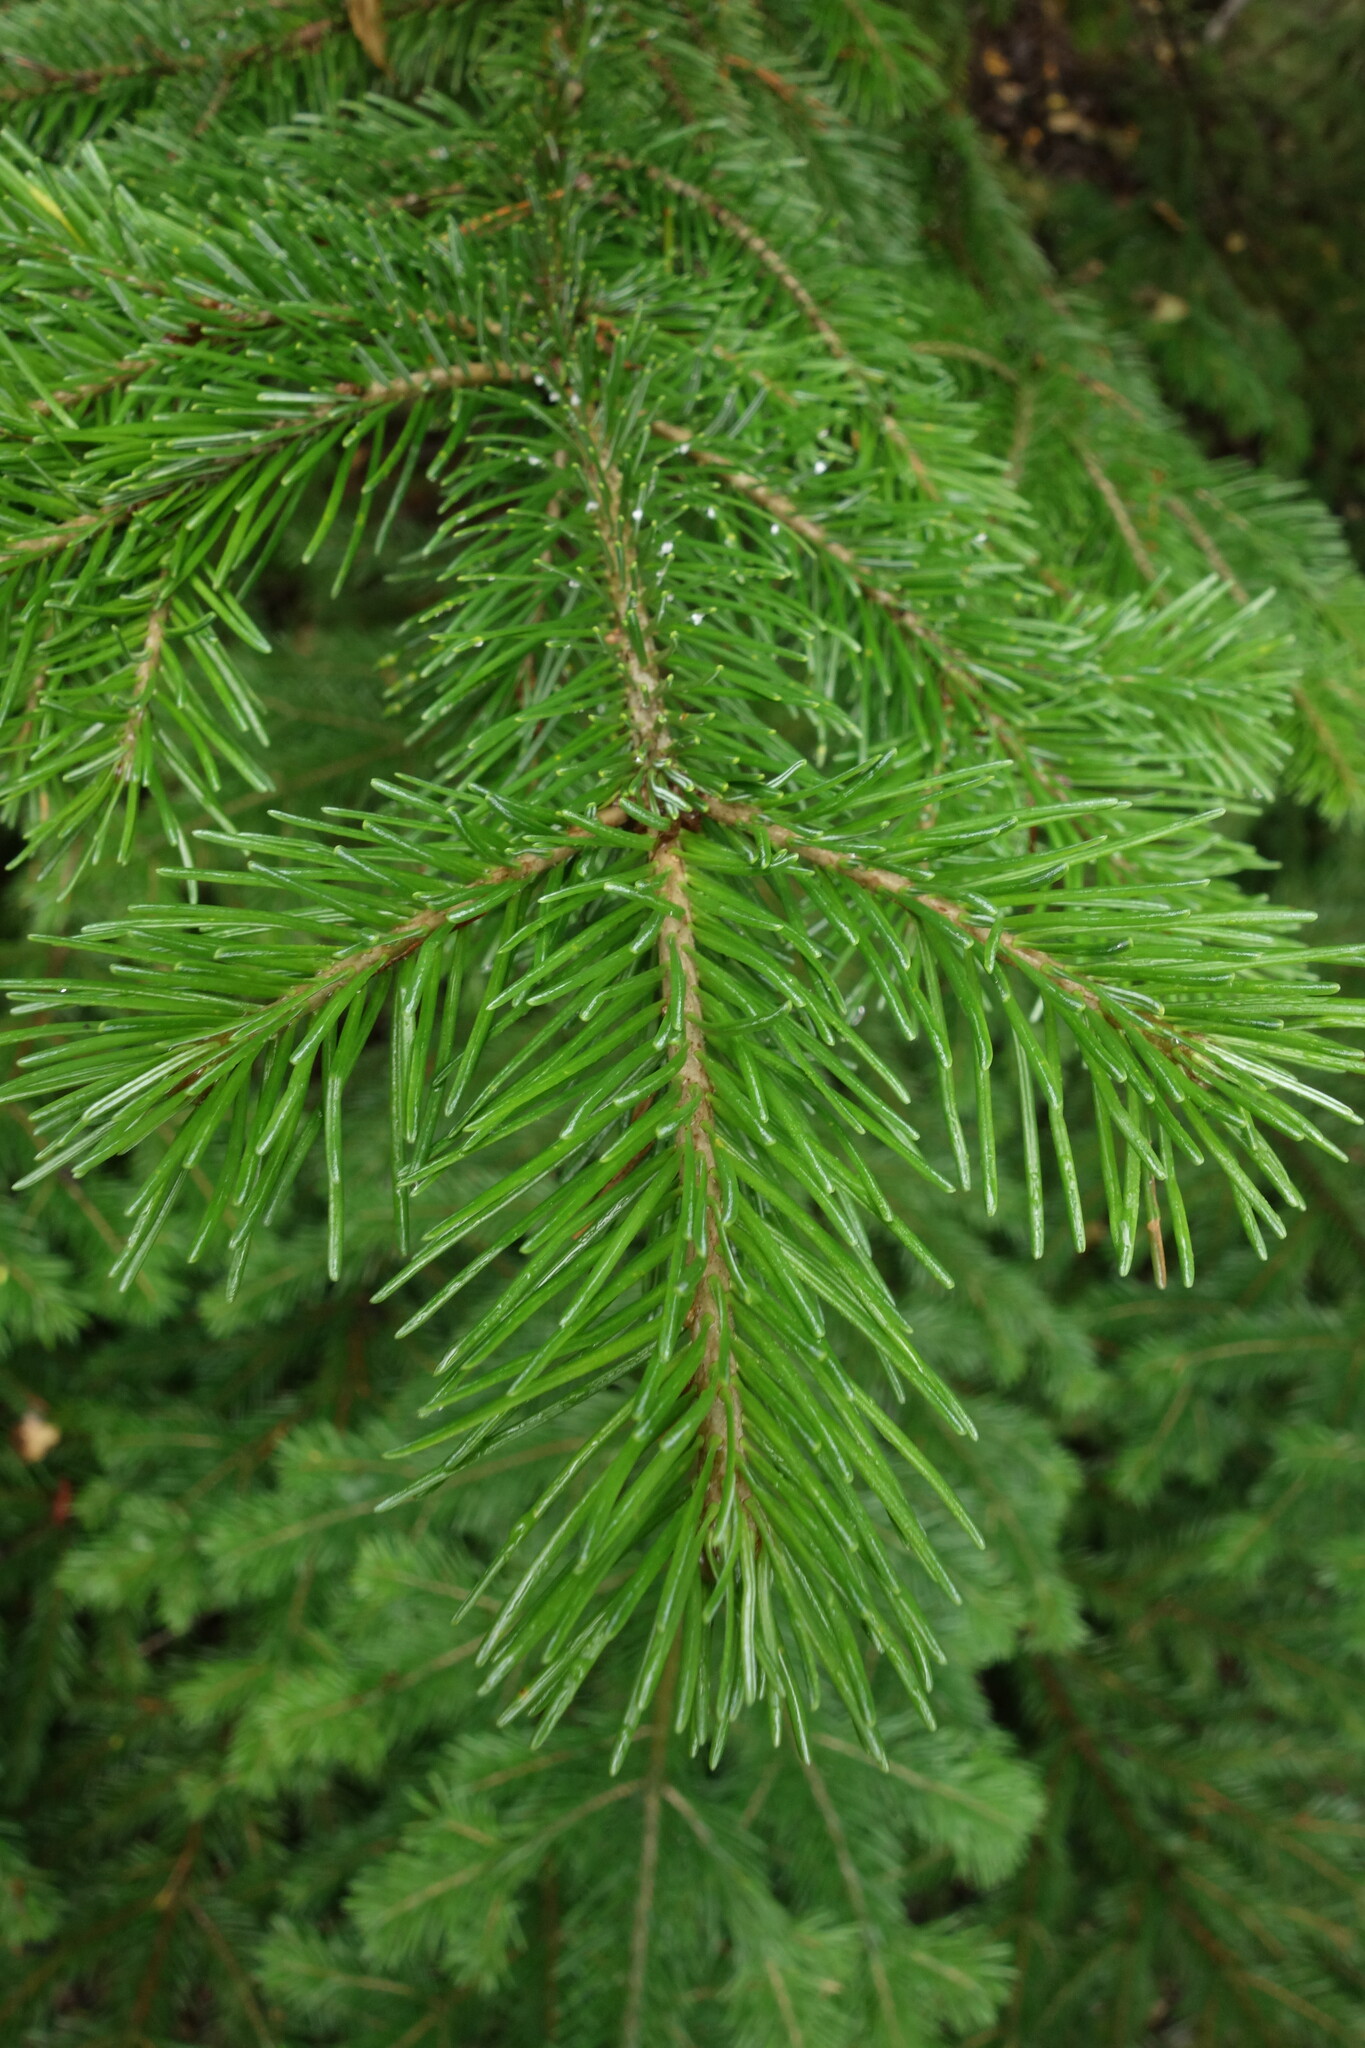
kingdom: Plantae
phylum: Tracheophyta
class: Pinopsida
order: Pinales
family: Pinaceae
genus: Abies
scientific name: Abies sibirica
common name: Siberian fir
